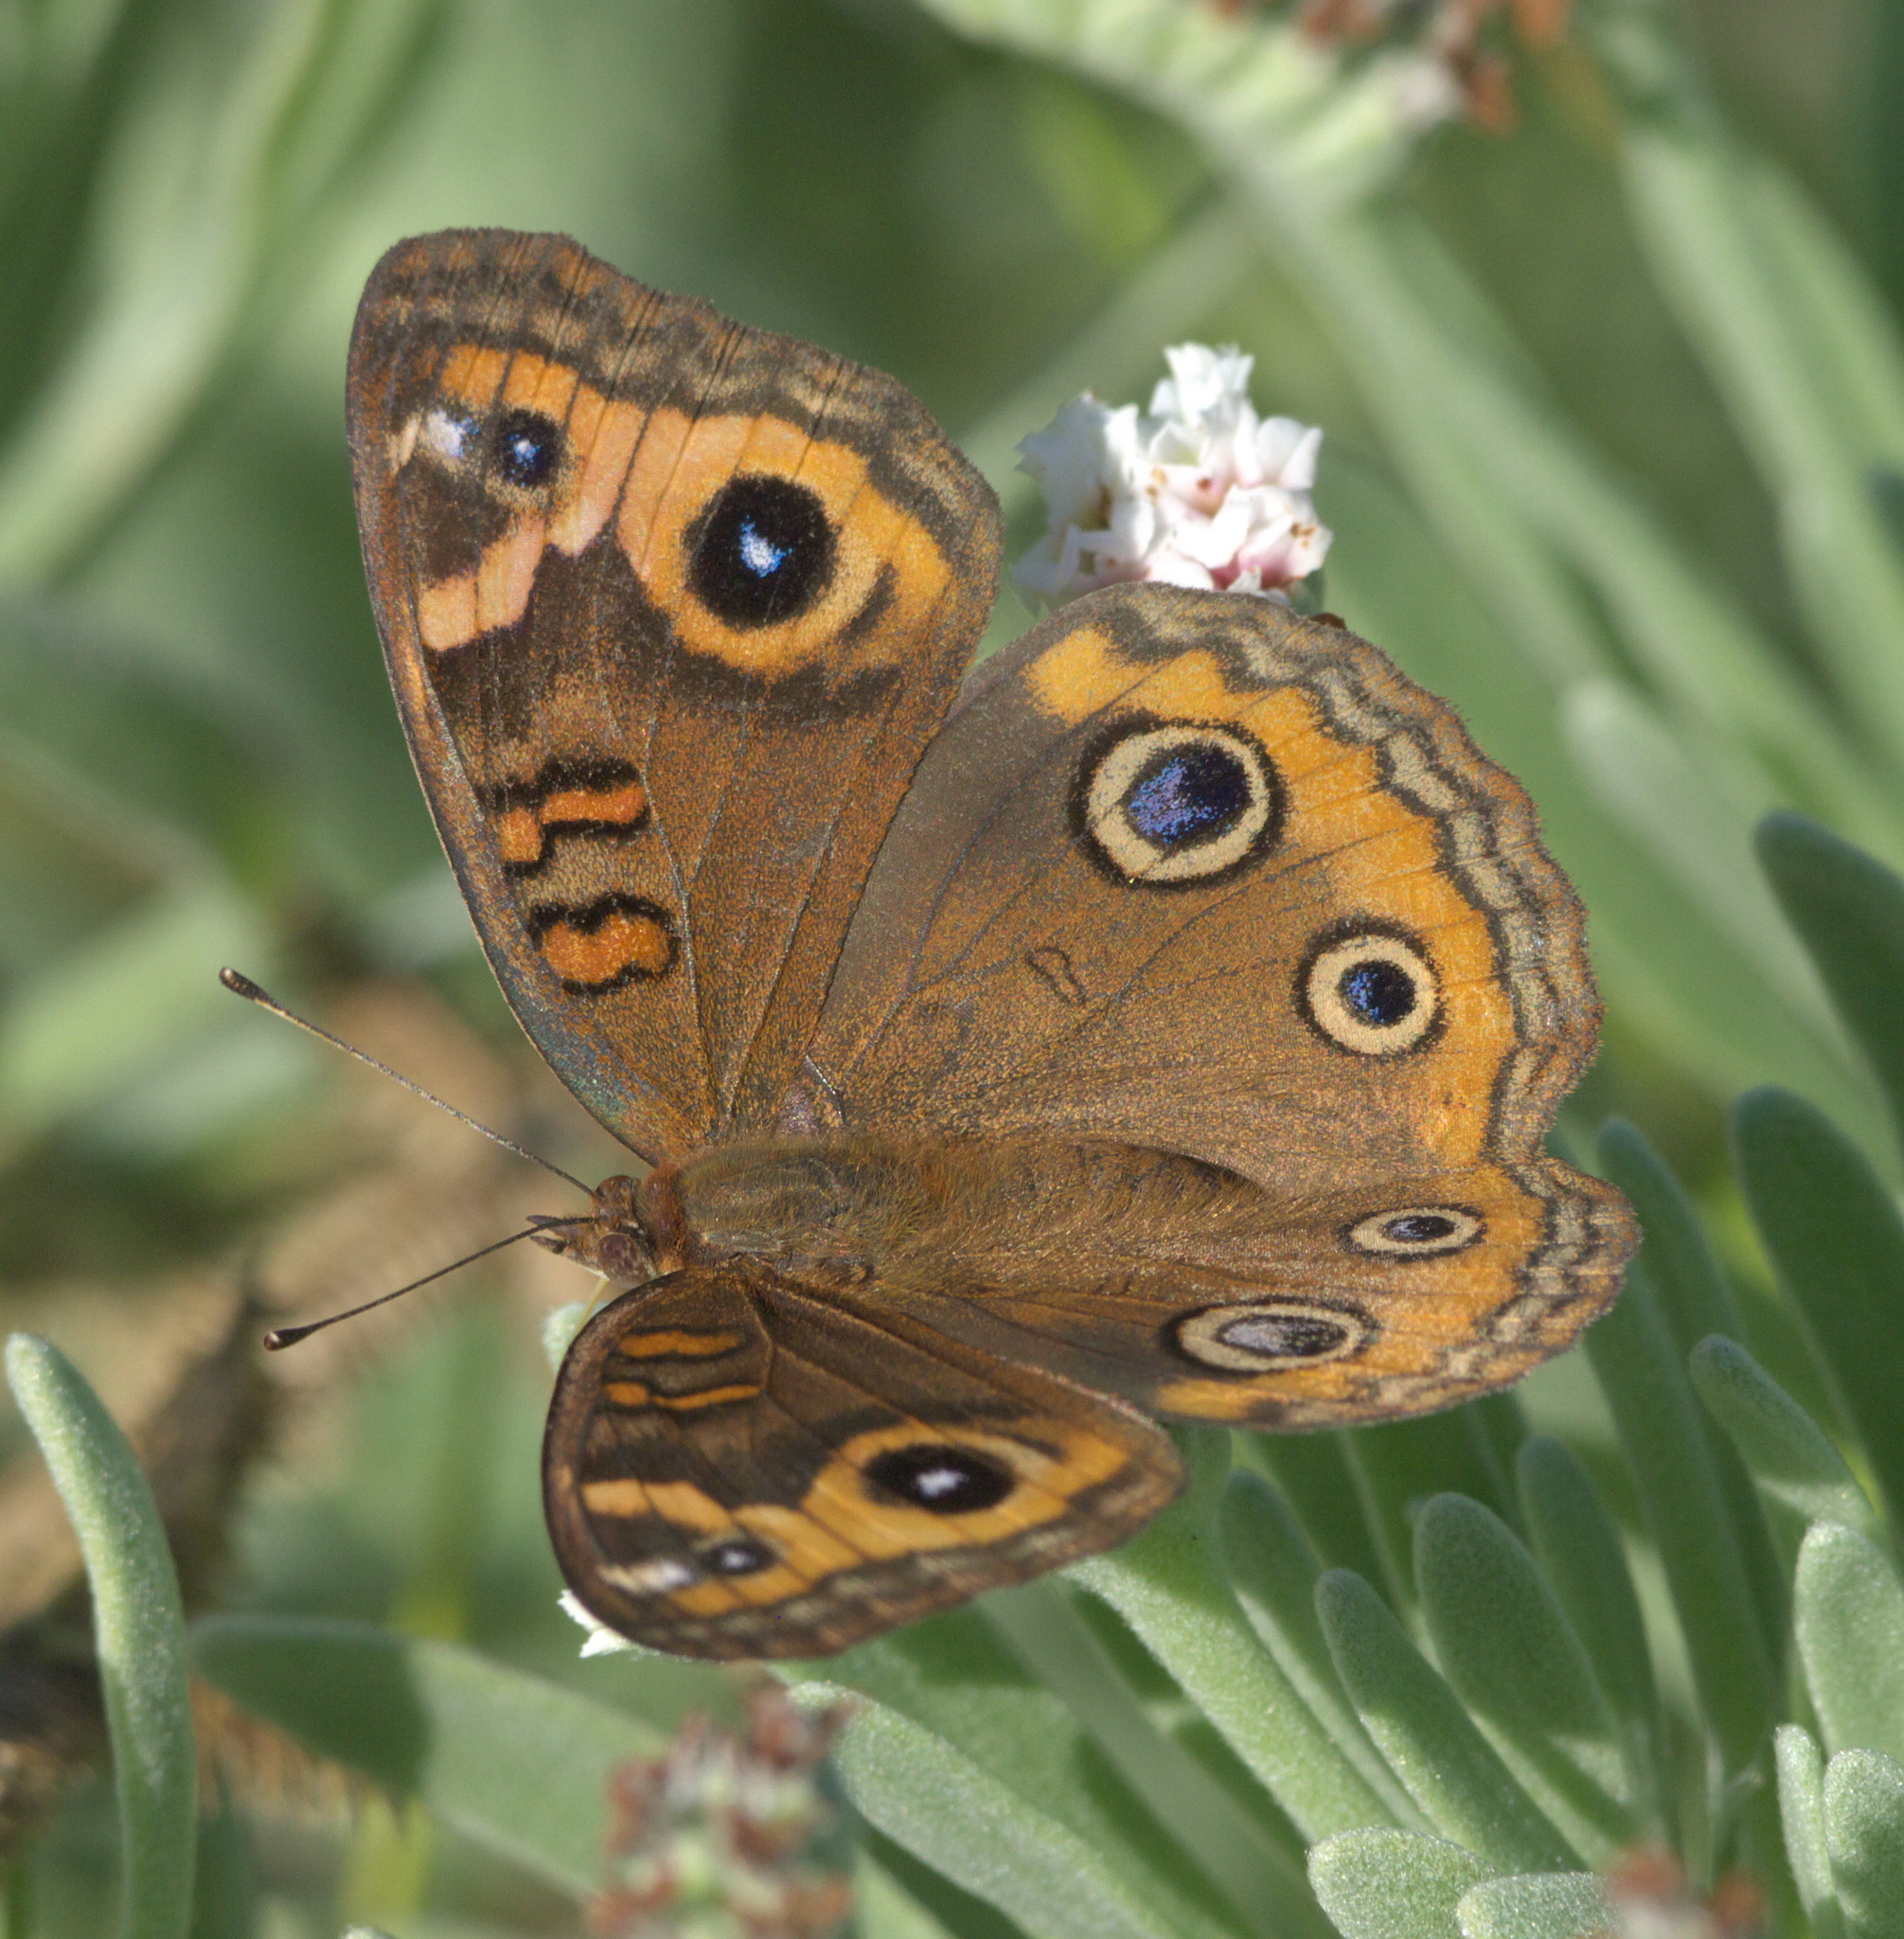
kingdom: Animalia
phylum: Arthropoda
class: Insecta
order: Lepidoptera
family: Nymphalidae
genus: Junonia
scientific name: Junonia neildi
